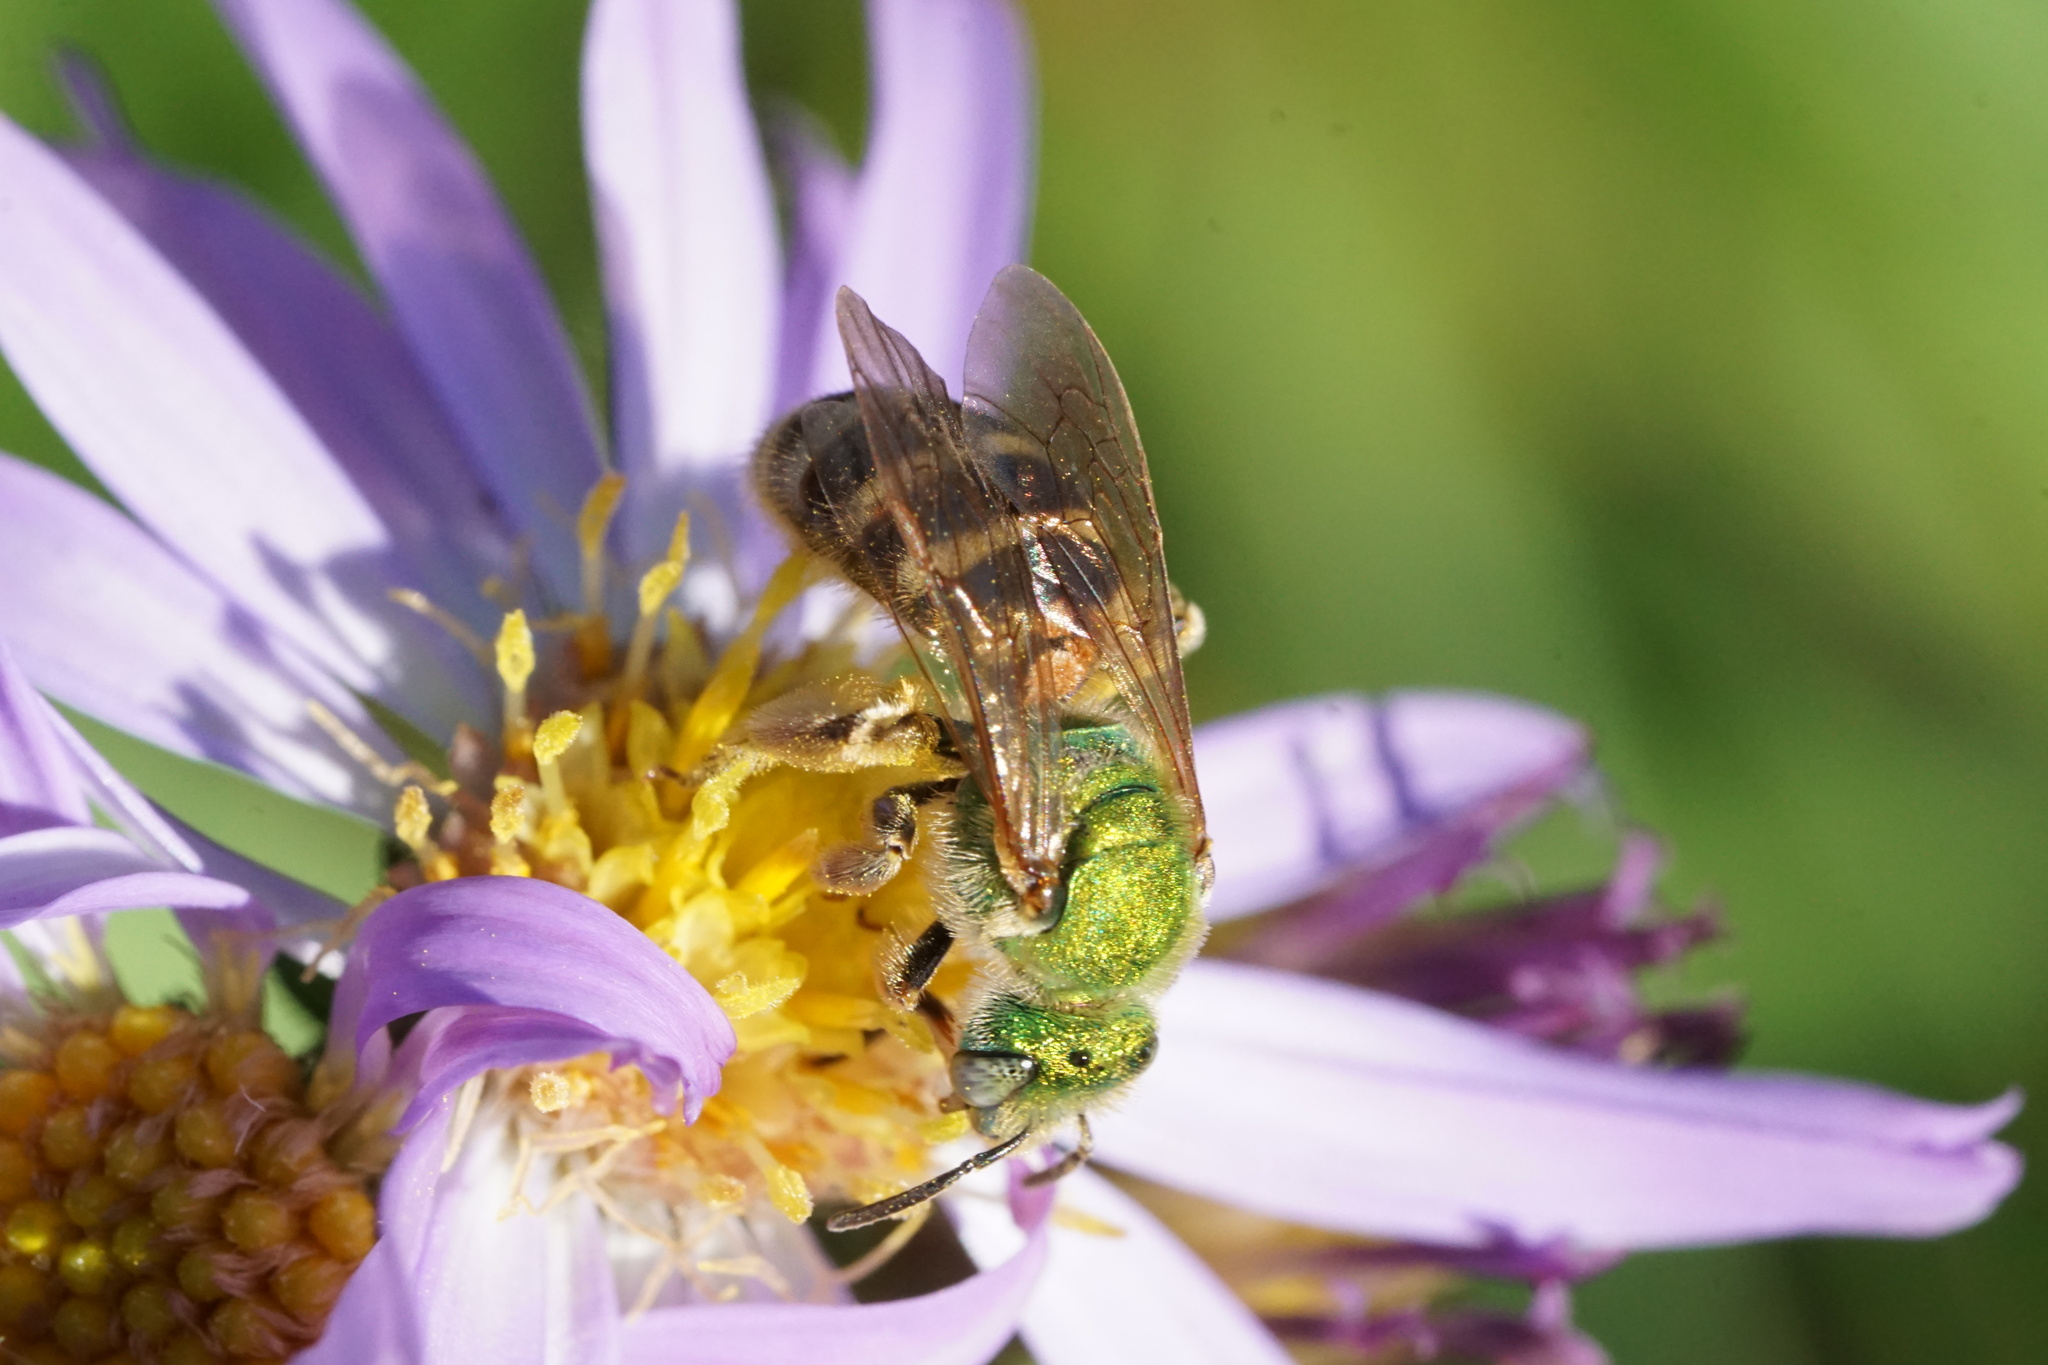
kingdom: Animalia
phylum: Arthropoda
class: Insecta
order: Hymenoptera
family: Halictidae
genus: Agapostemon
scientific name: Agapostemon virescens
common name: Bicolored striped sweat bee
